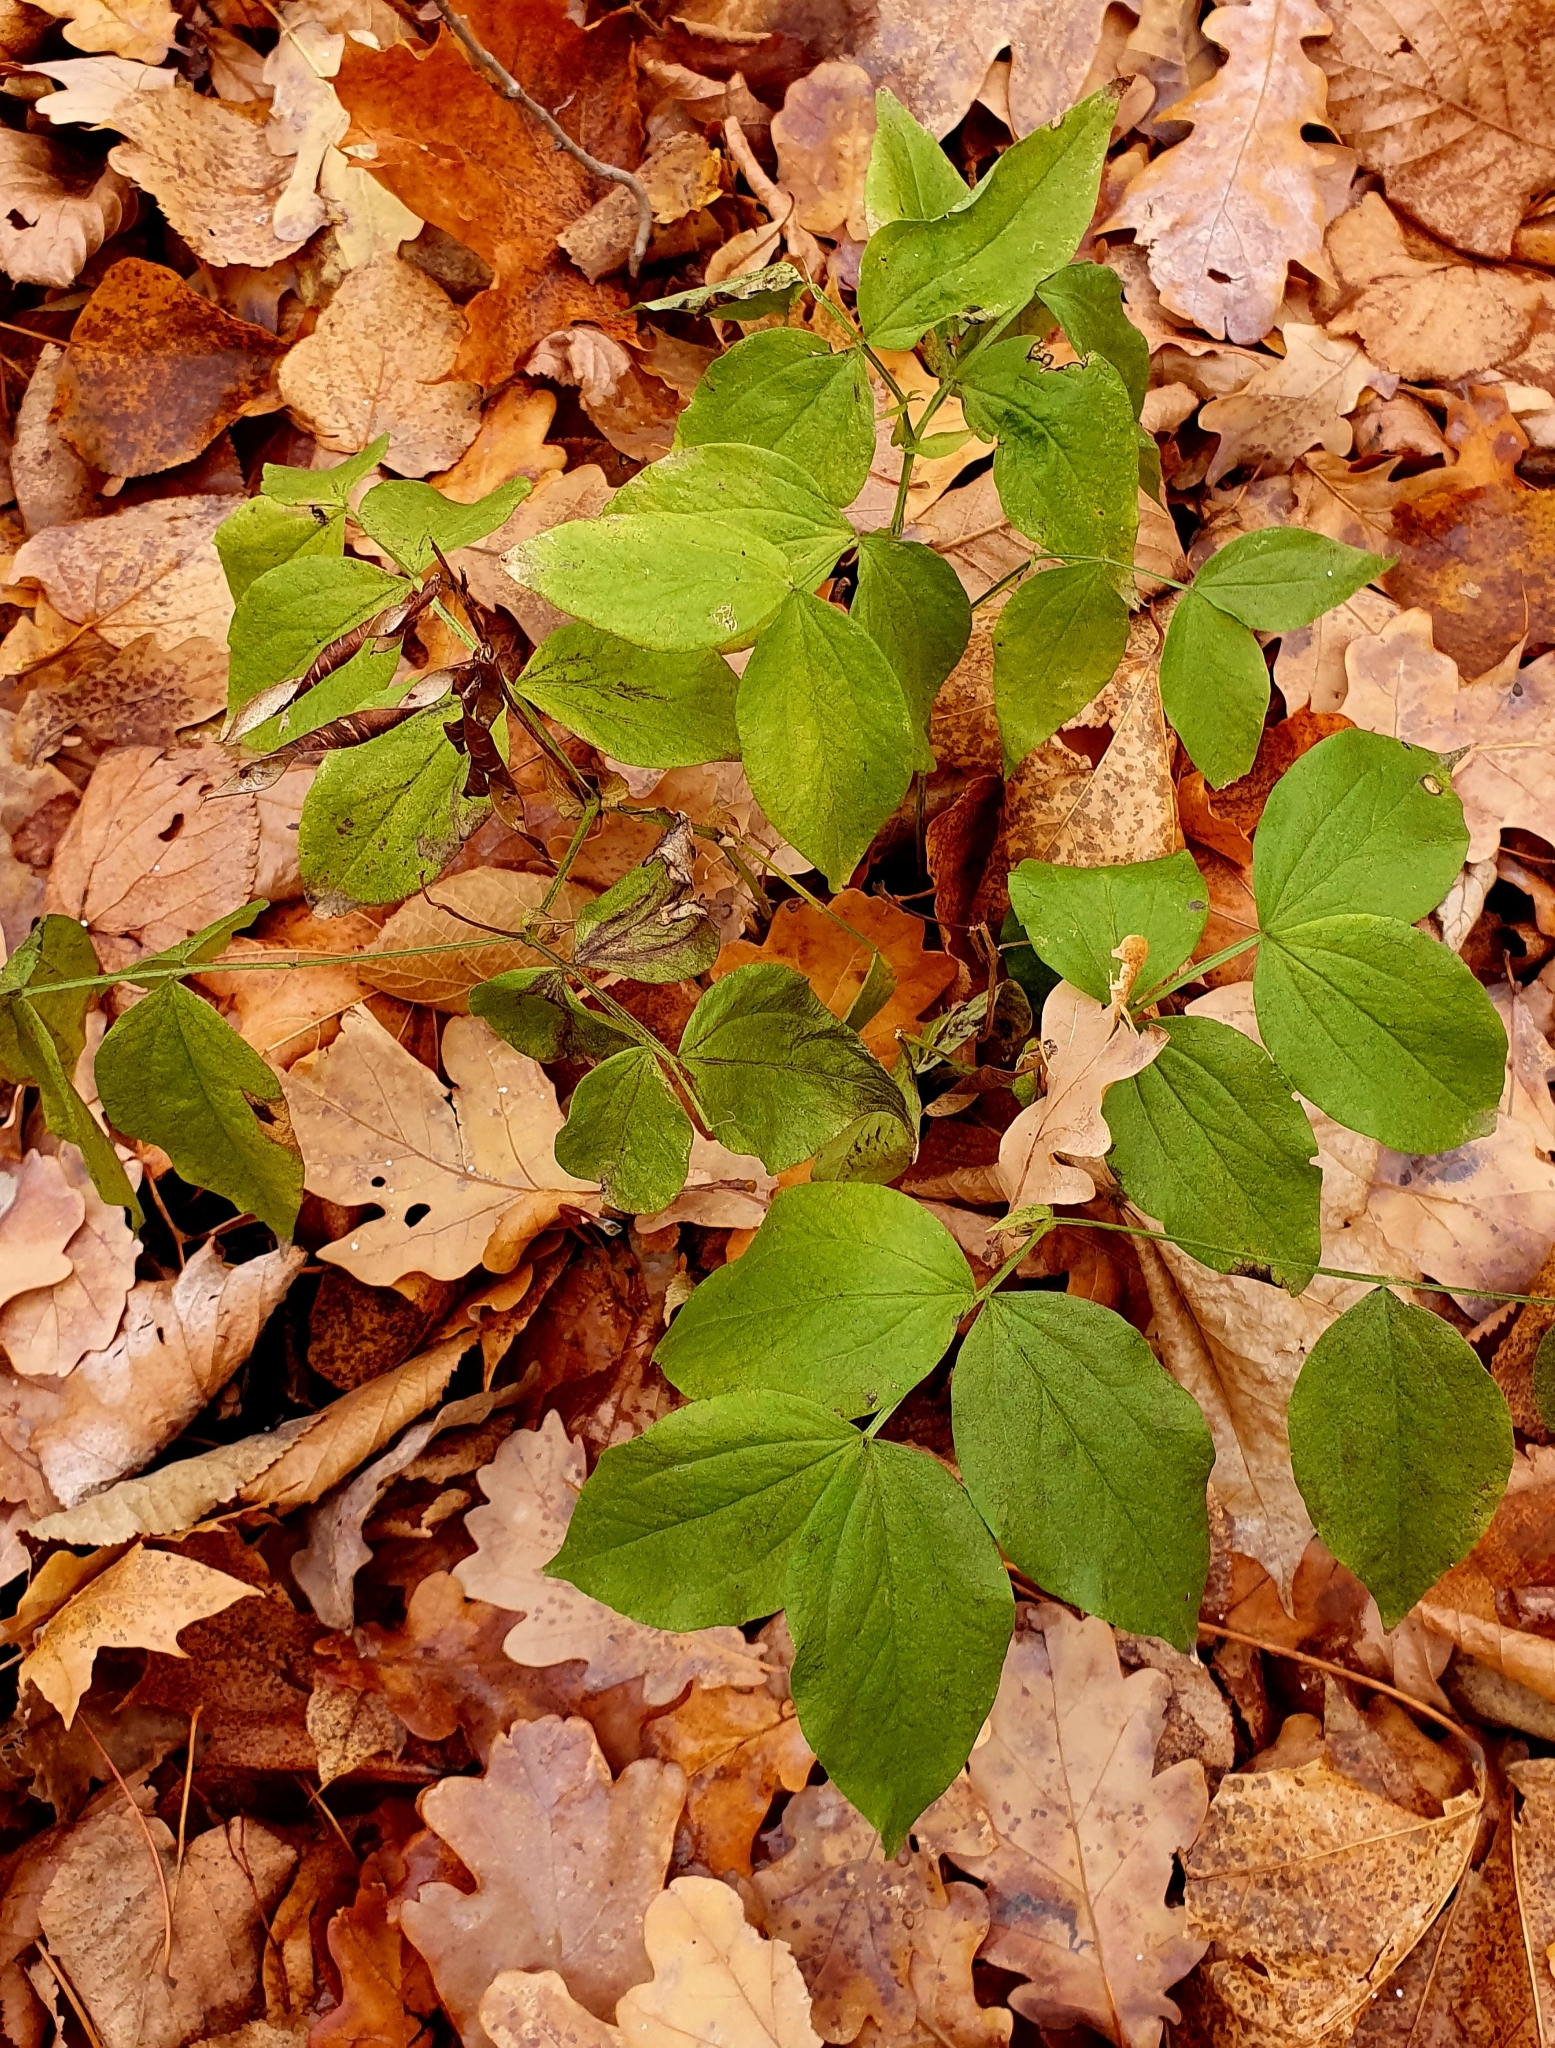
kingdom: Plantae
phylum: Tracheophyta
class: Magnoliopsida
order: Fabales
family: Fabaceae
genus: Lathyrus
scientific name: Lathyrus vernus
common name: Spring pea
